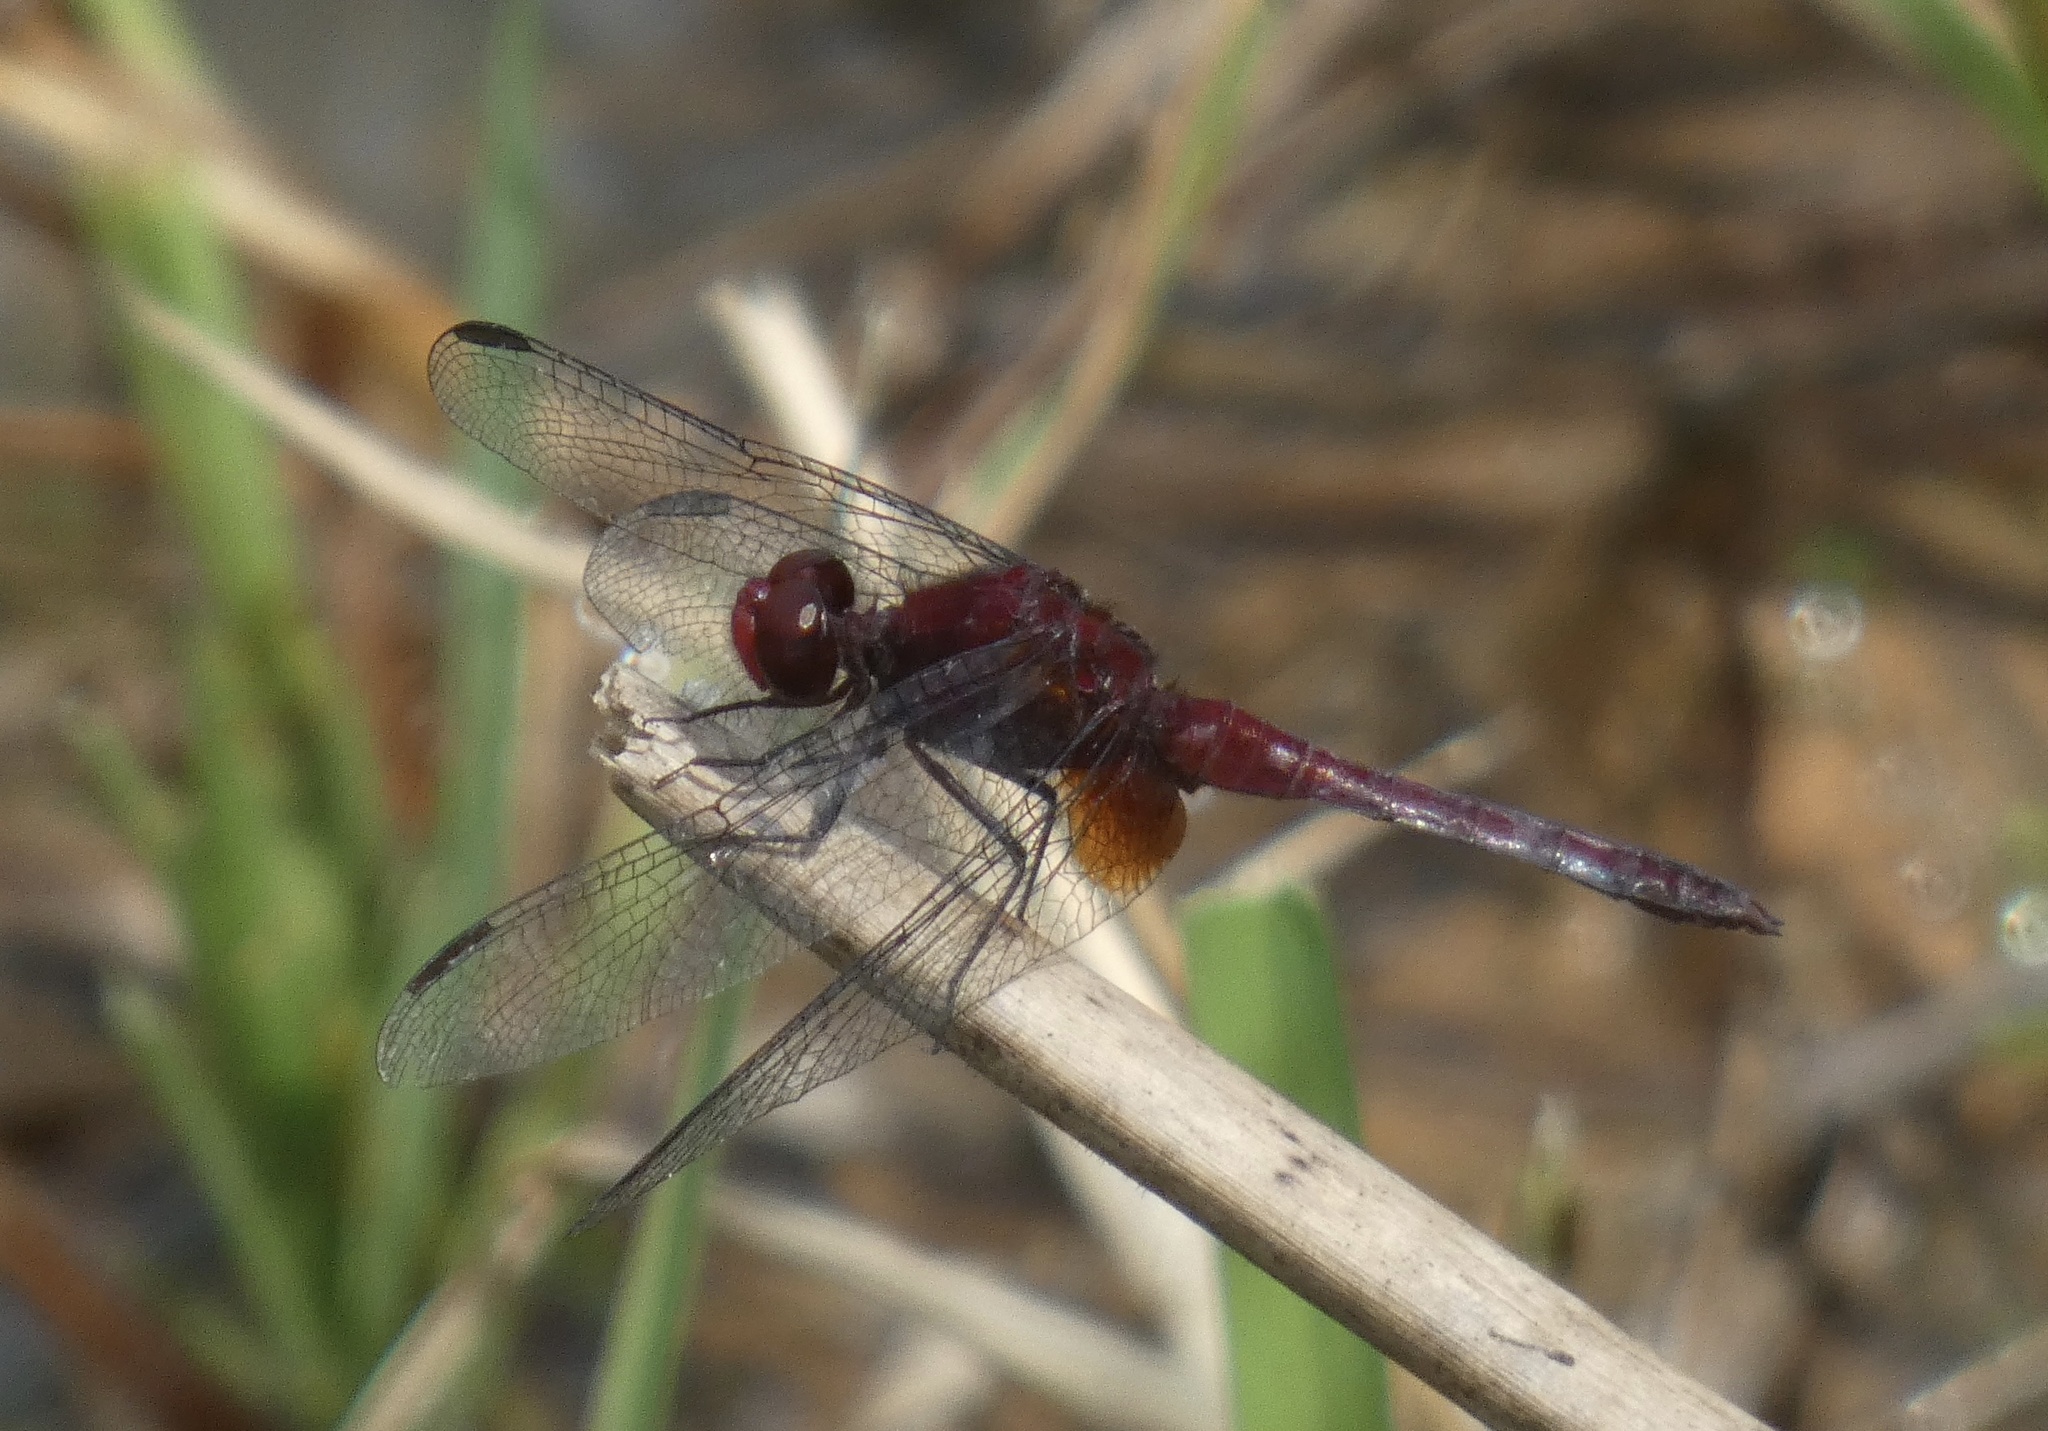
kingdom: Animalia
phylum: Arthropoda
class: Insecta
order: Odonata
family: Libellulidae
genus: Erythrodiplax
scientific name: Erythrodiplax fusca
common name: Red-faced dragonlet
